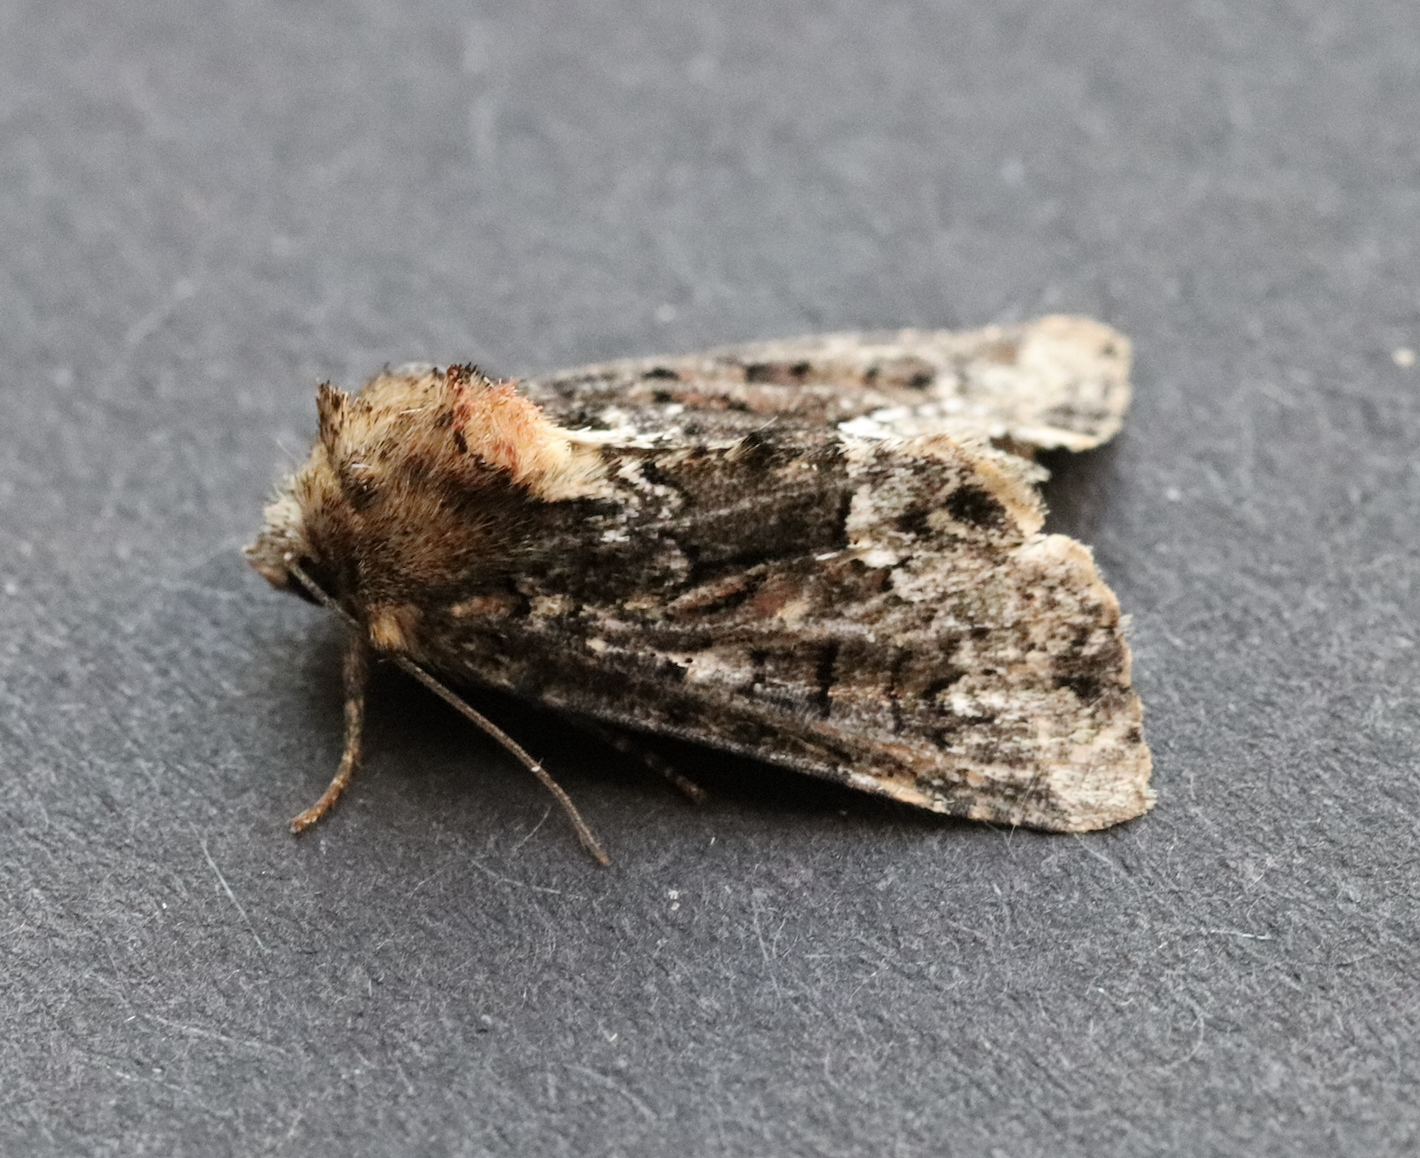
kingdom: Animalia
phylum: Arthropoda
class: Insecta
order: Lepidoptera
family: Noctuidae
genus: Oligia
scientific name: Oligia strigilis
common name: Marbled minor
